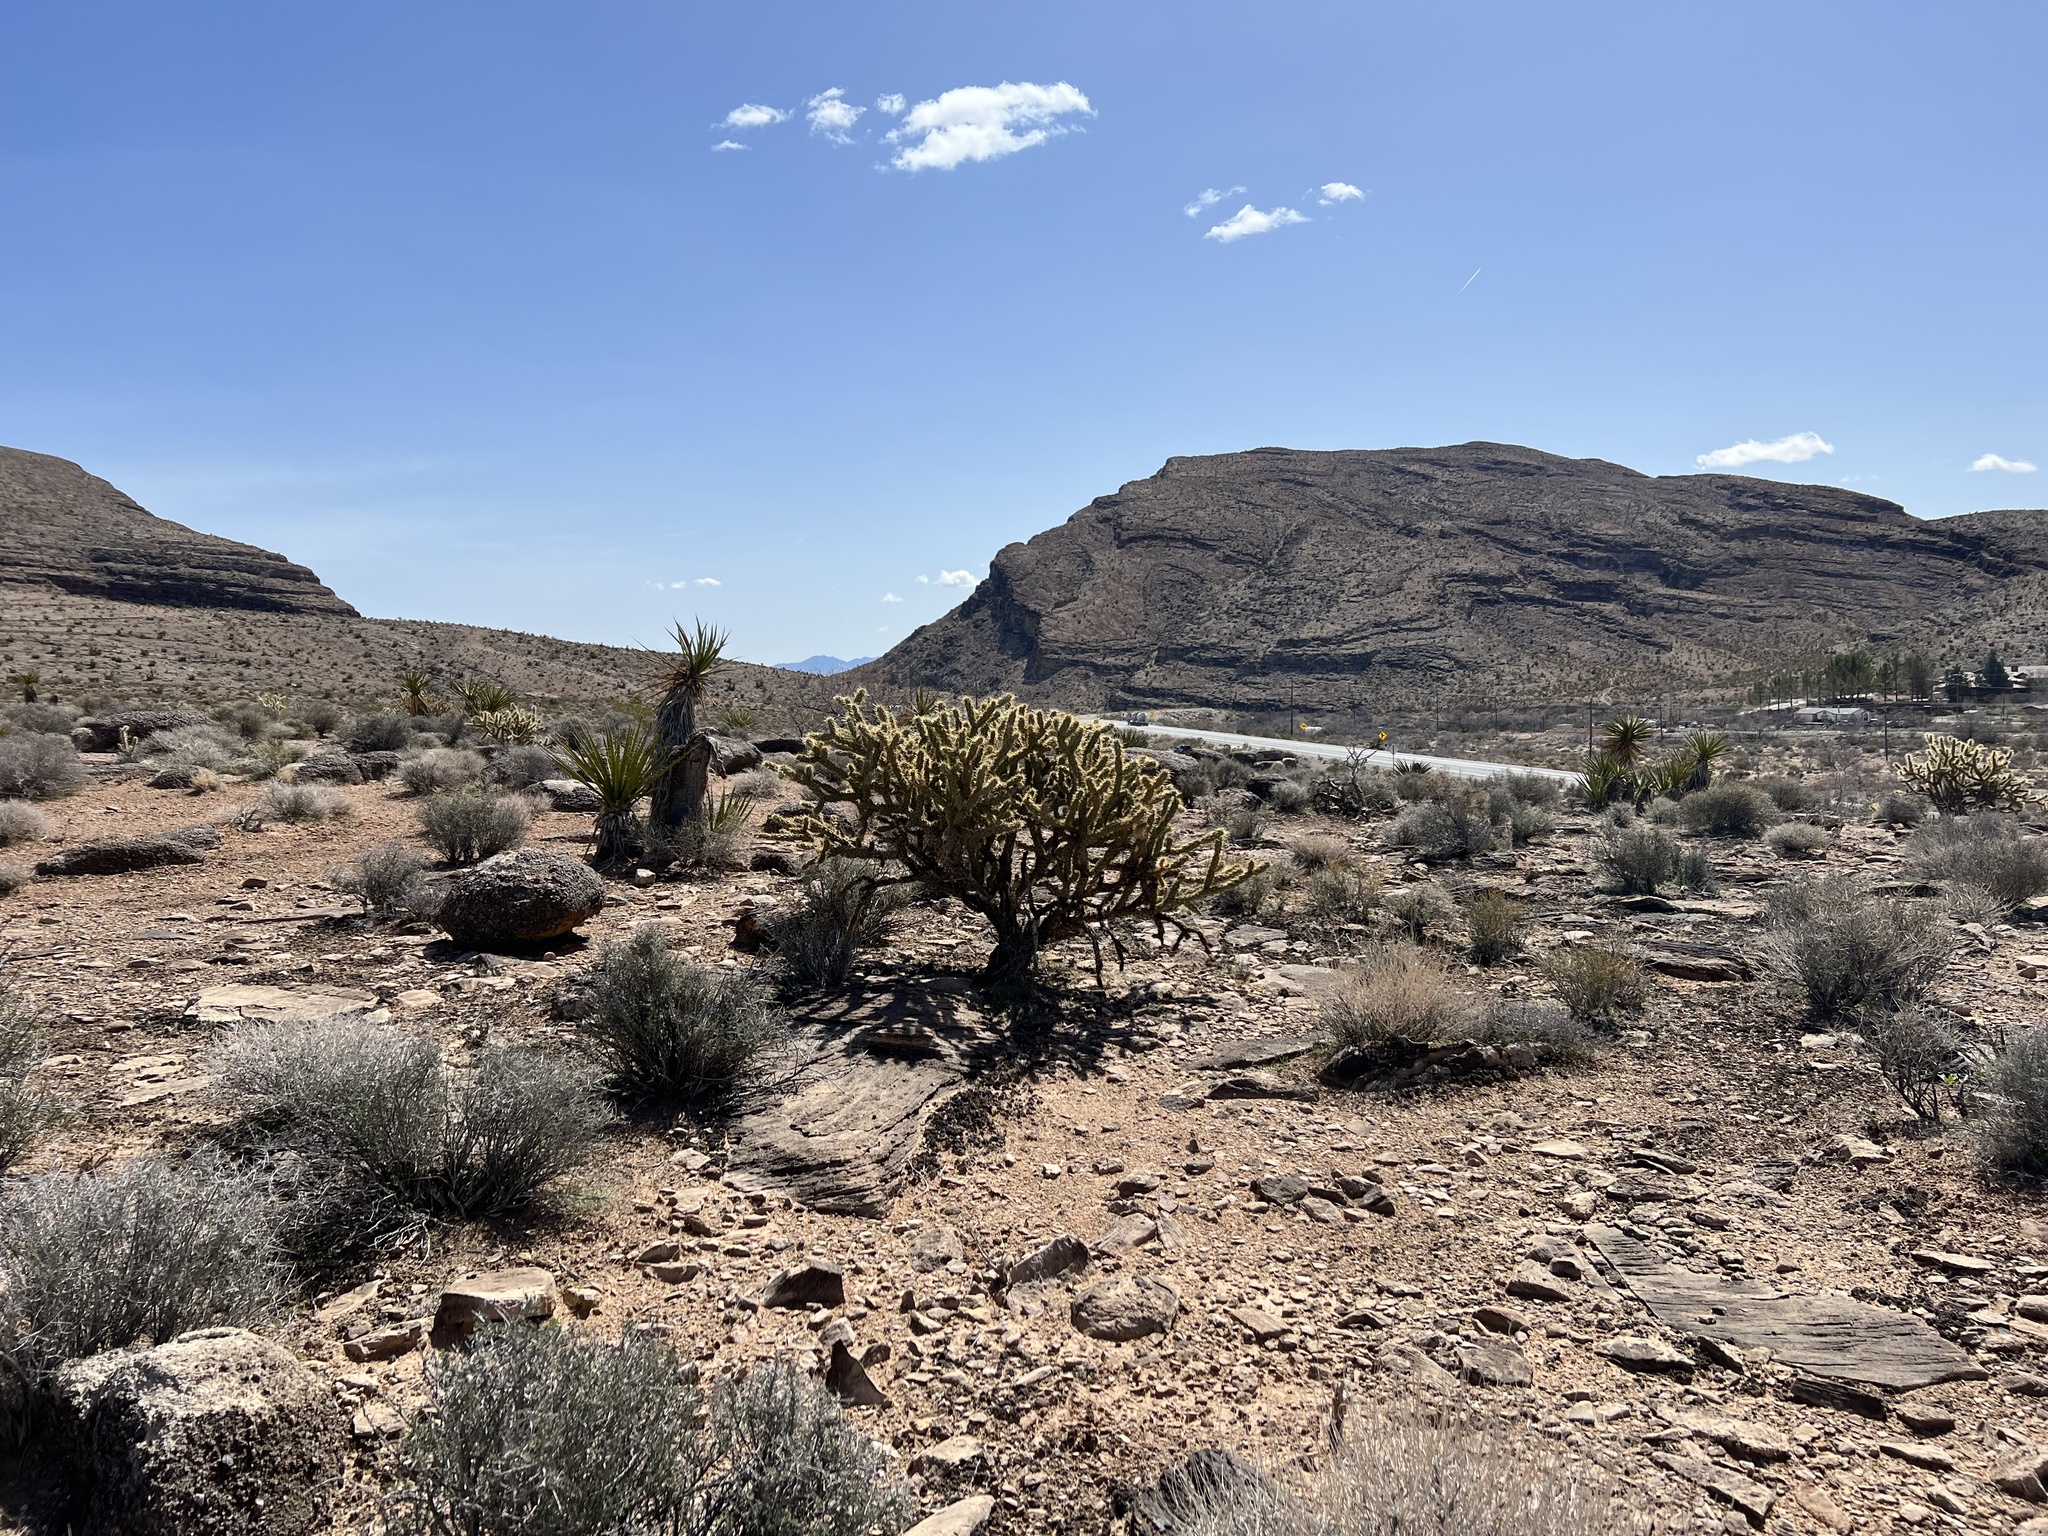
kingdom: Plantae
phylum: Tracheophyta
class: Magnoliopsida
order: Caryophyllales
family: Cactaceae
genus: Cylindropuntia
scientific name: Cylindropuntia acanthocarpa
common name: Buckhorn cholla
